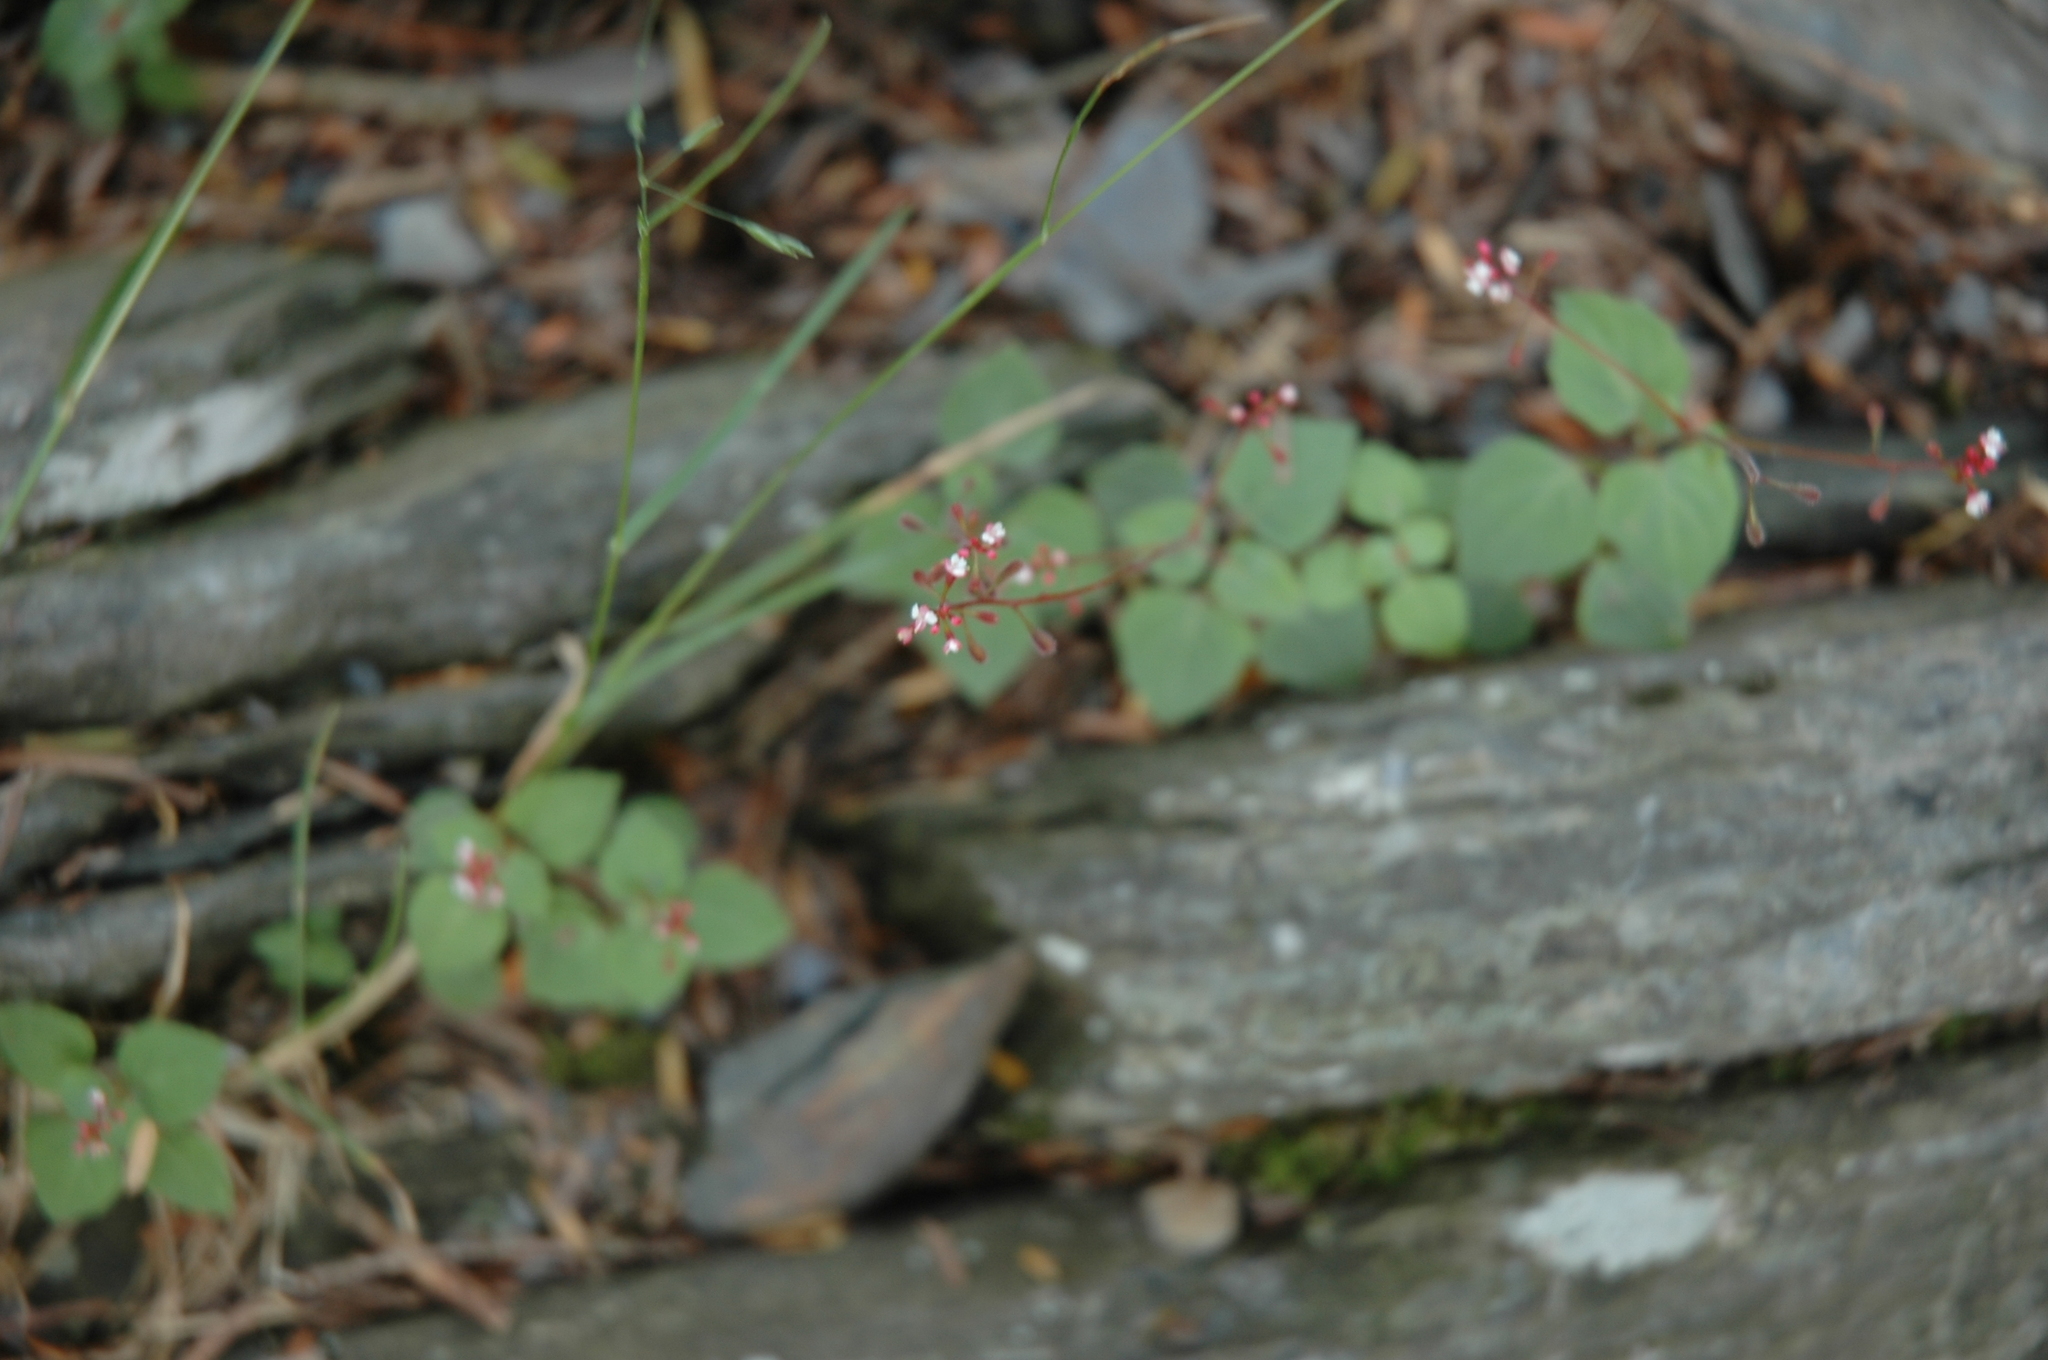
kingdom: Plantae
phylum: Tracheophyta
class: Magnoliopsida
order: Myrtales
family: Onagraceae
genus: Circaea
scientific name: Circaea alpina
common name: Alpine enchanter's-nightshade
